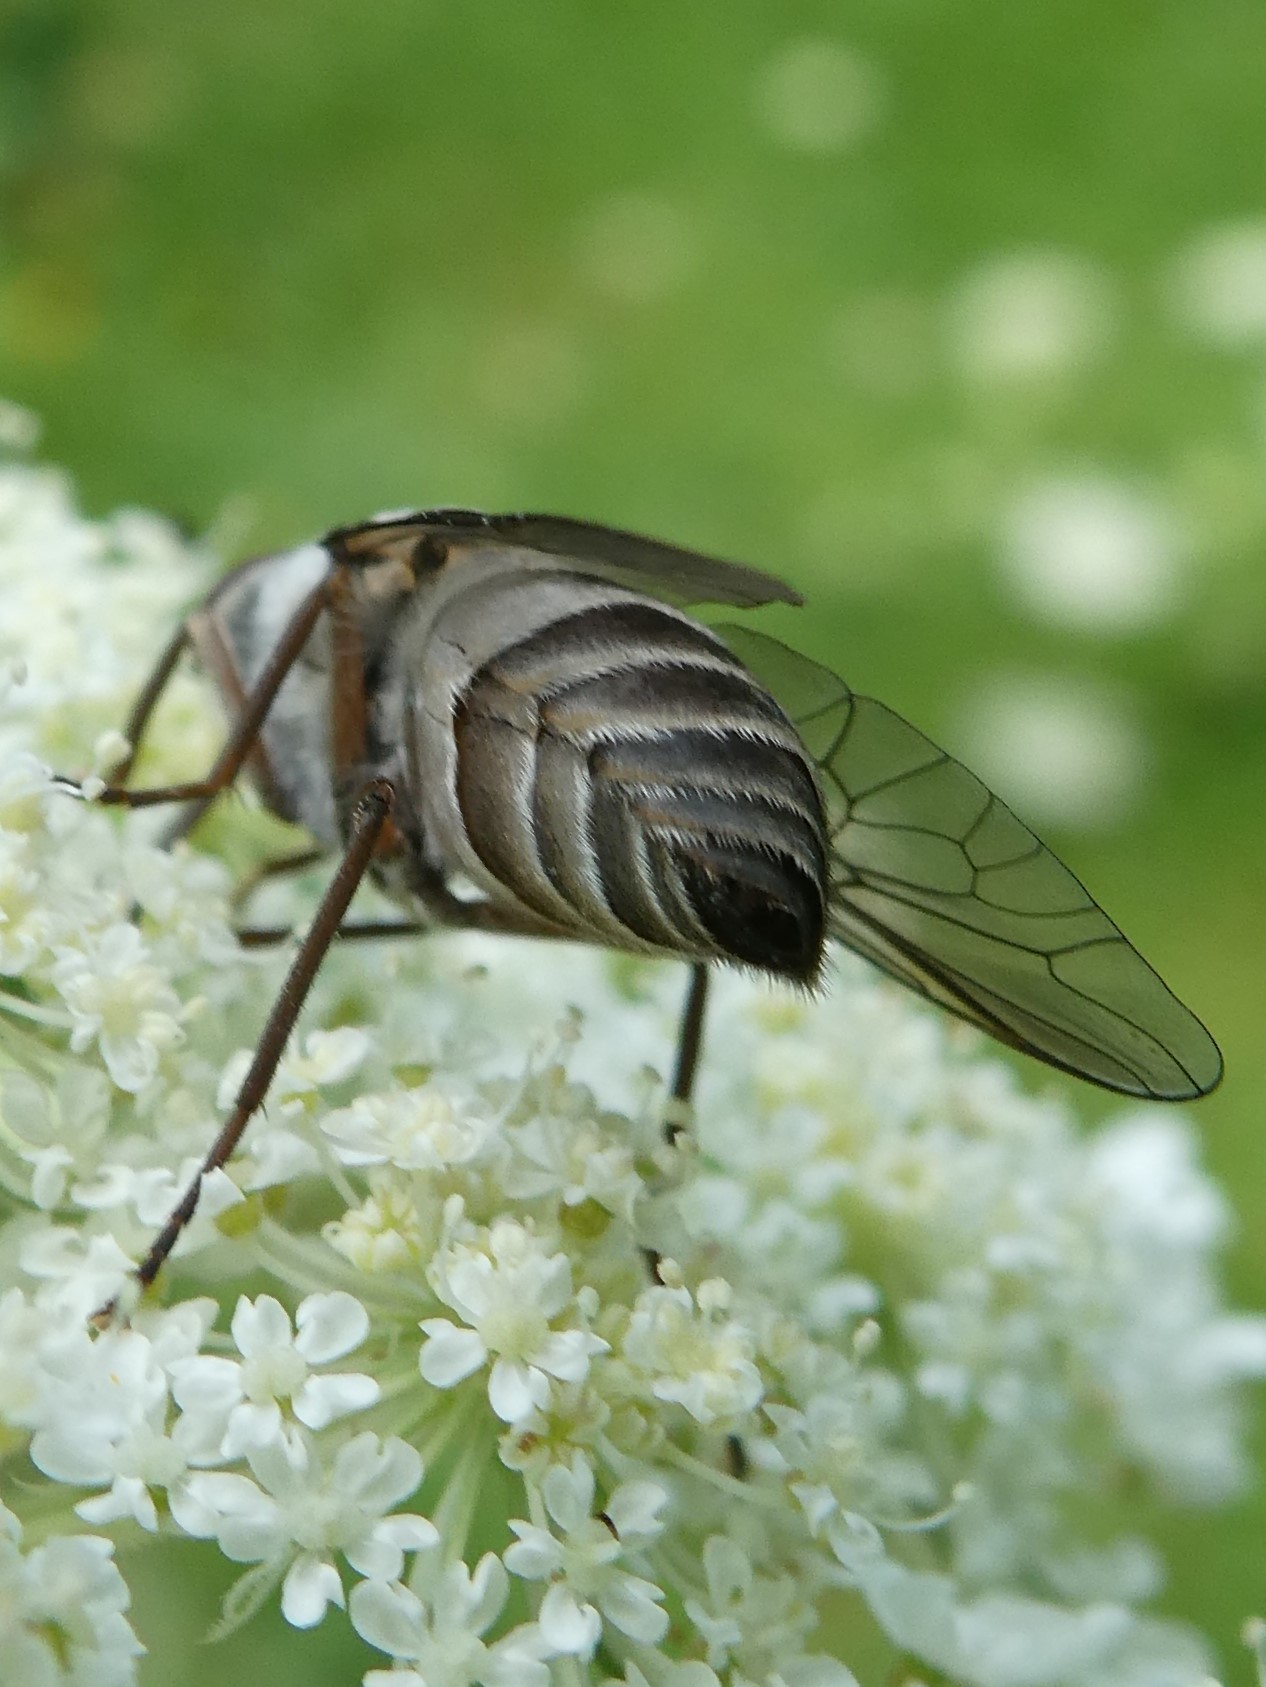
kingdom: Animalia
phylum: Arthropoda
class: Insecta
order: Diptera
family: Tabanidae
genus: Stonemyia
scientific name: Stonemyia rasa
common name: Shaved horse fly
